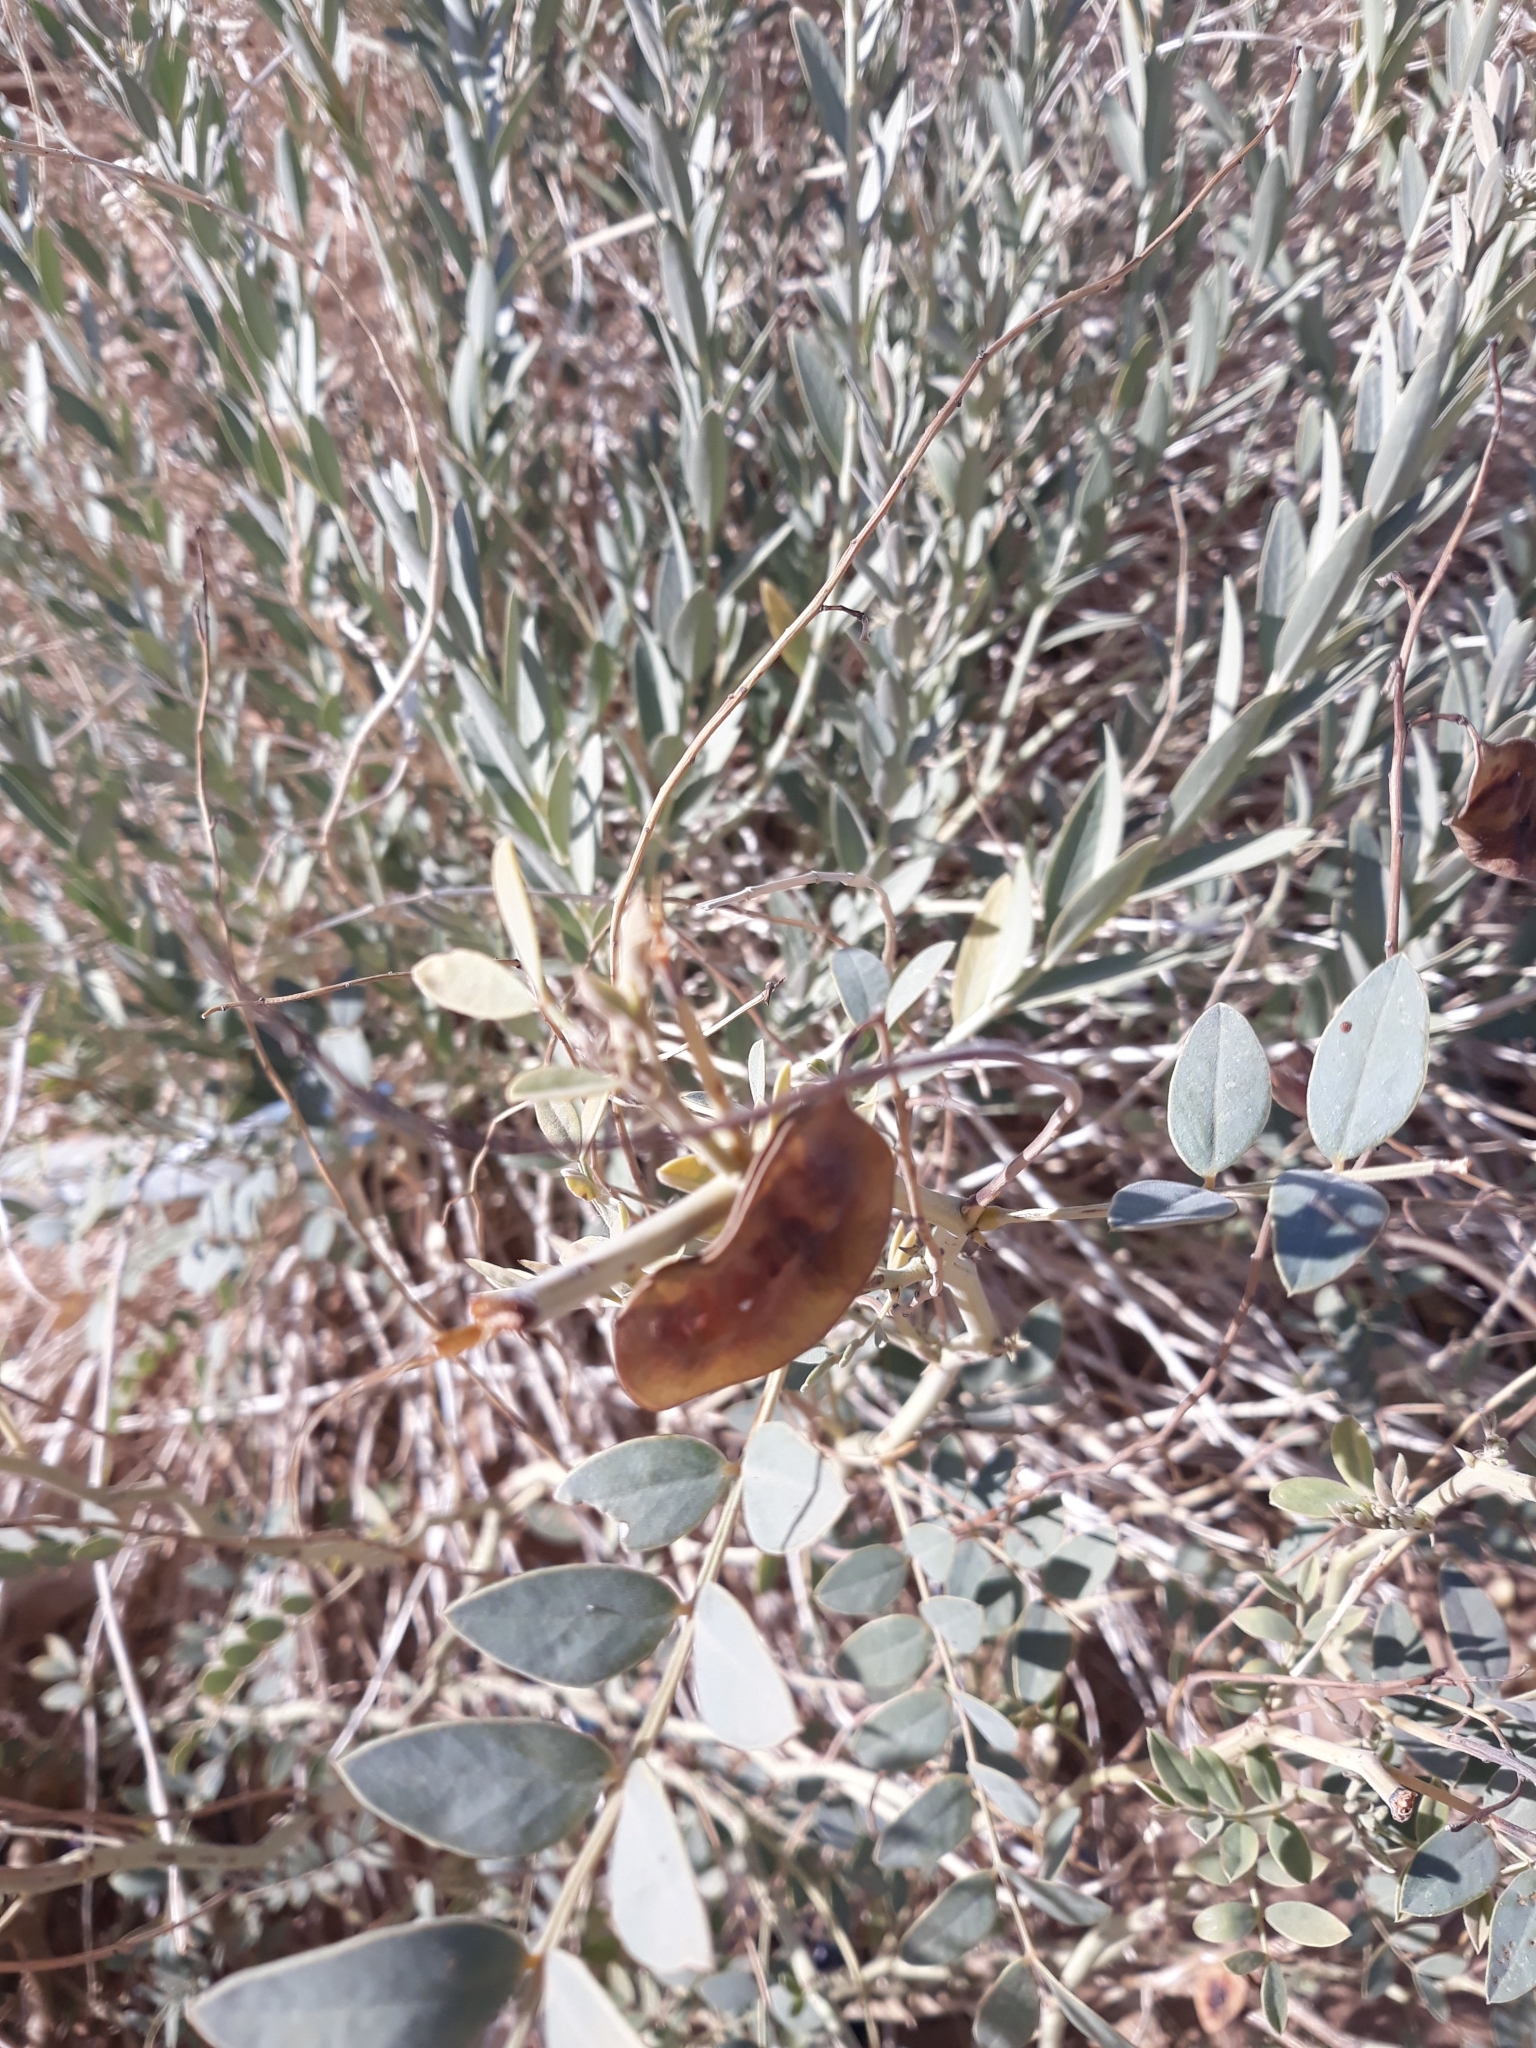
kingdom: Plantae
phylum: Tracheophyta
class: Magnoliopsida
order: Fabales
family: Fabaceae
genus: Senna
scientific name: Senna alexandrina
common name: True senna
